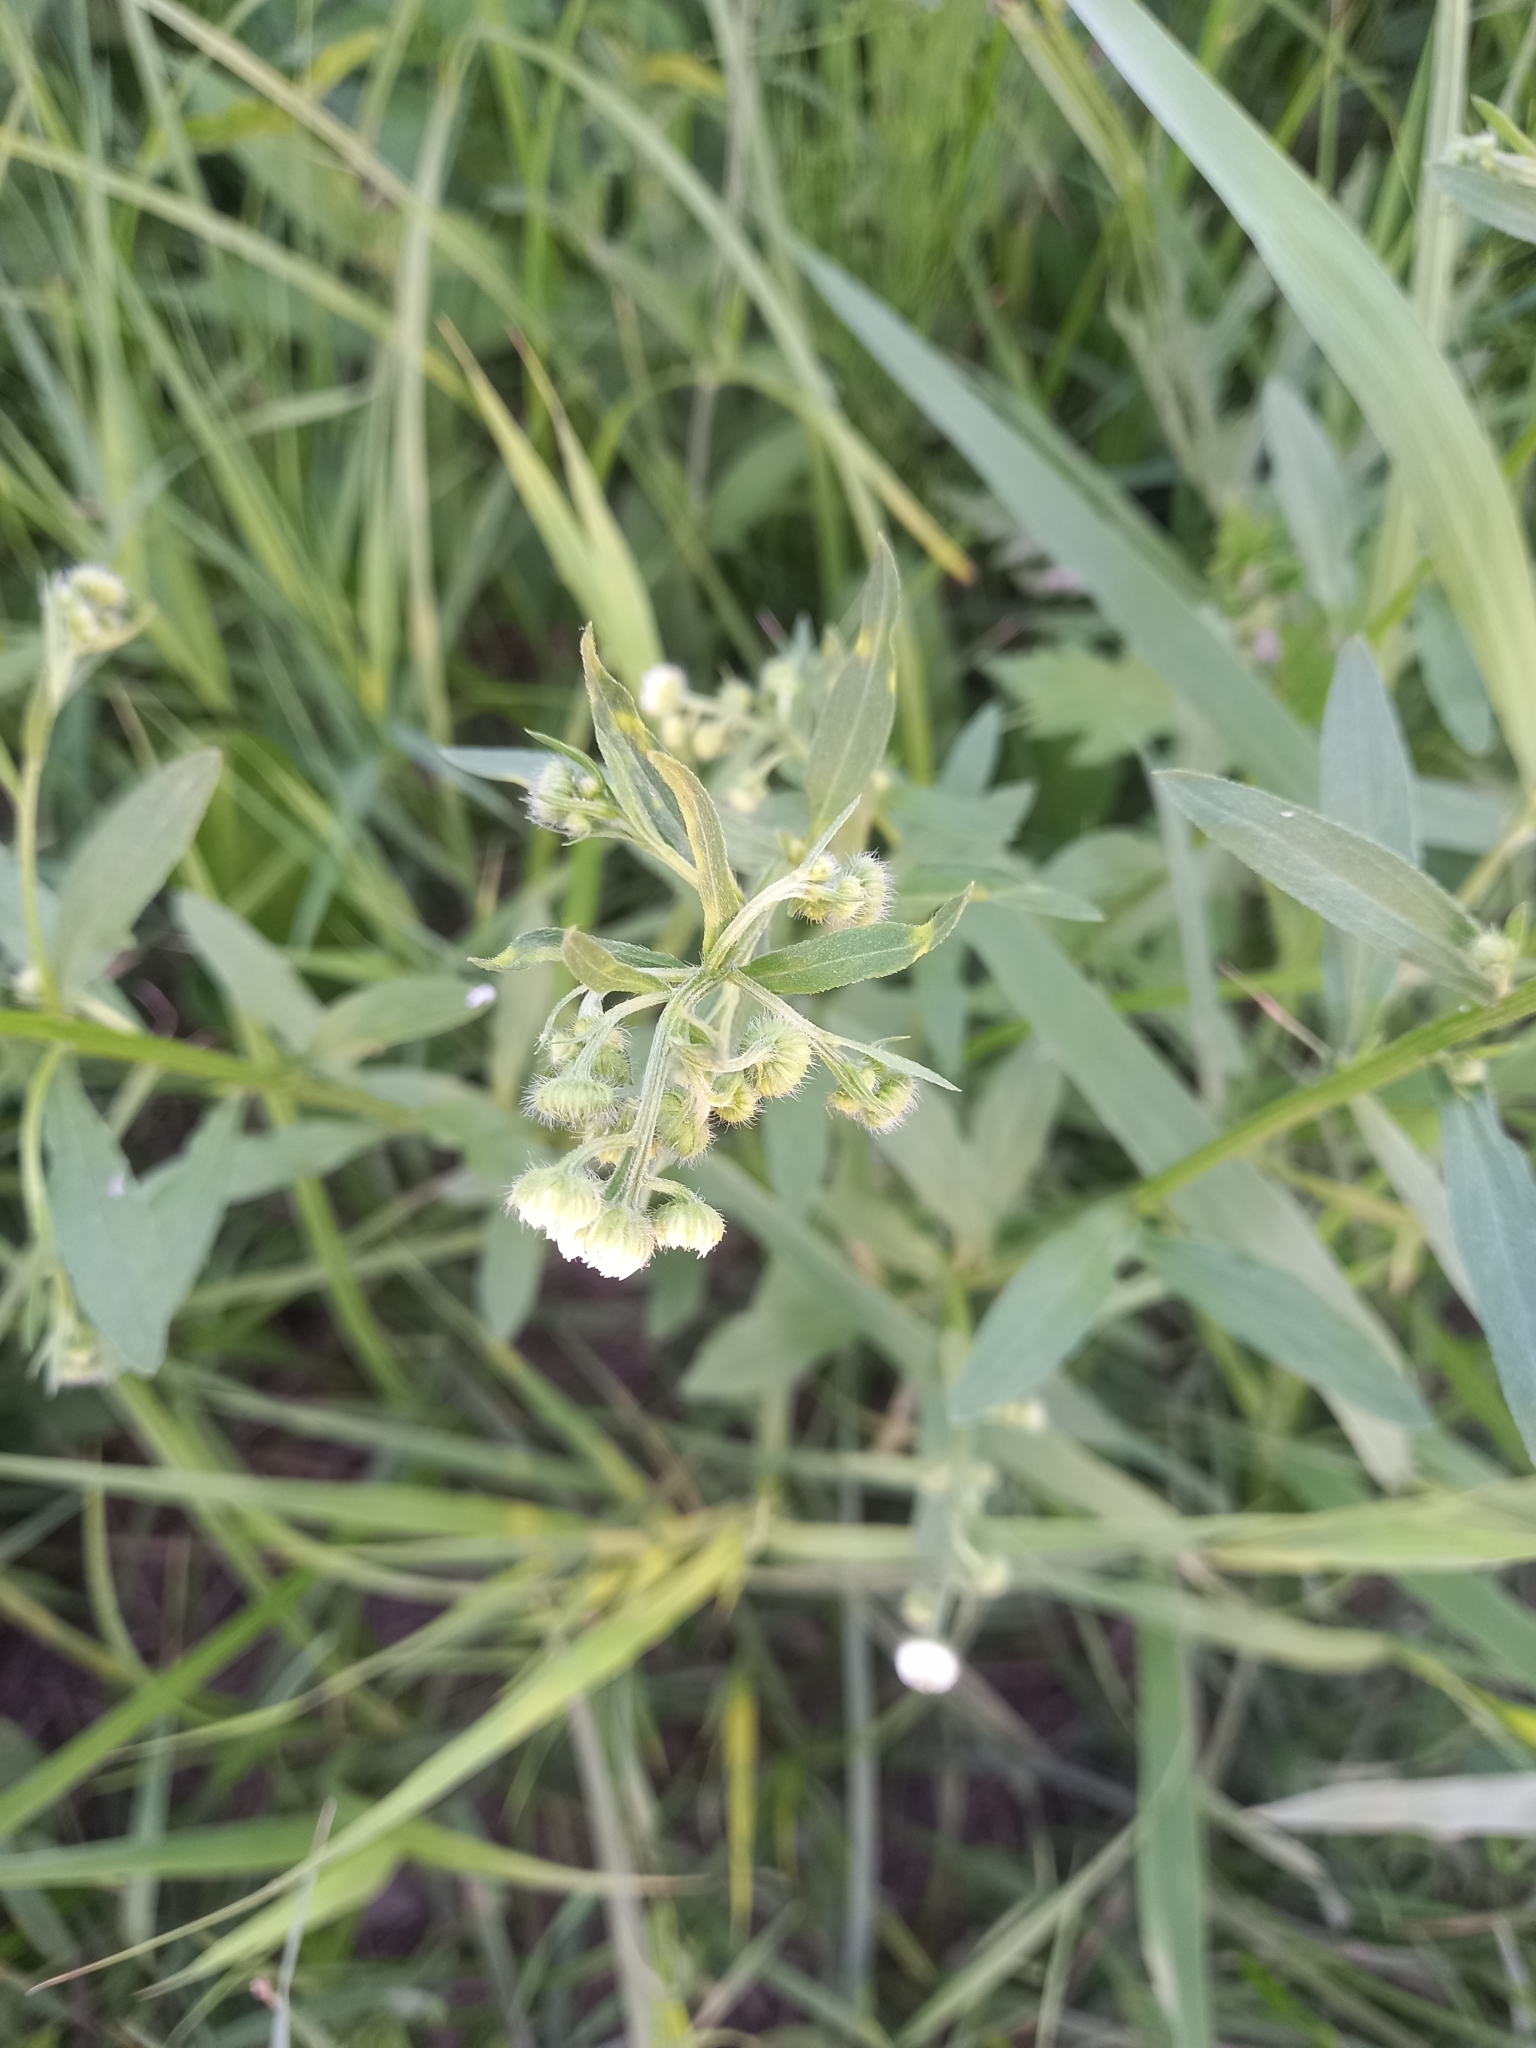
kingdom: Plantae
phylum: Tracheophyta
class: Magnoliopsida
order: Asterales
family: Asteraceae
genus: Erigeron
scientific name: Erigeron annuus
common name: Tall fleabane
